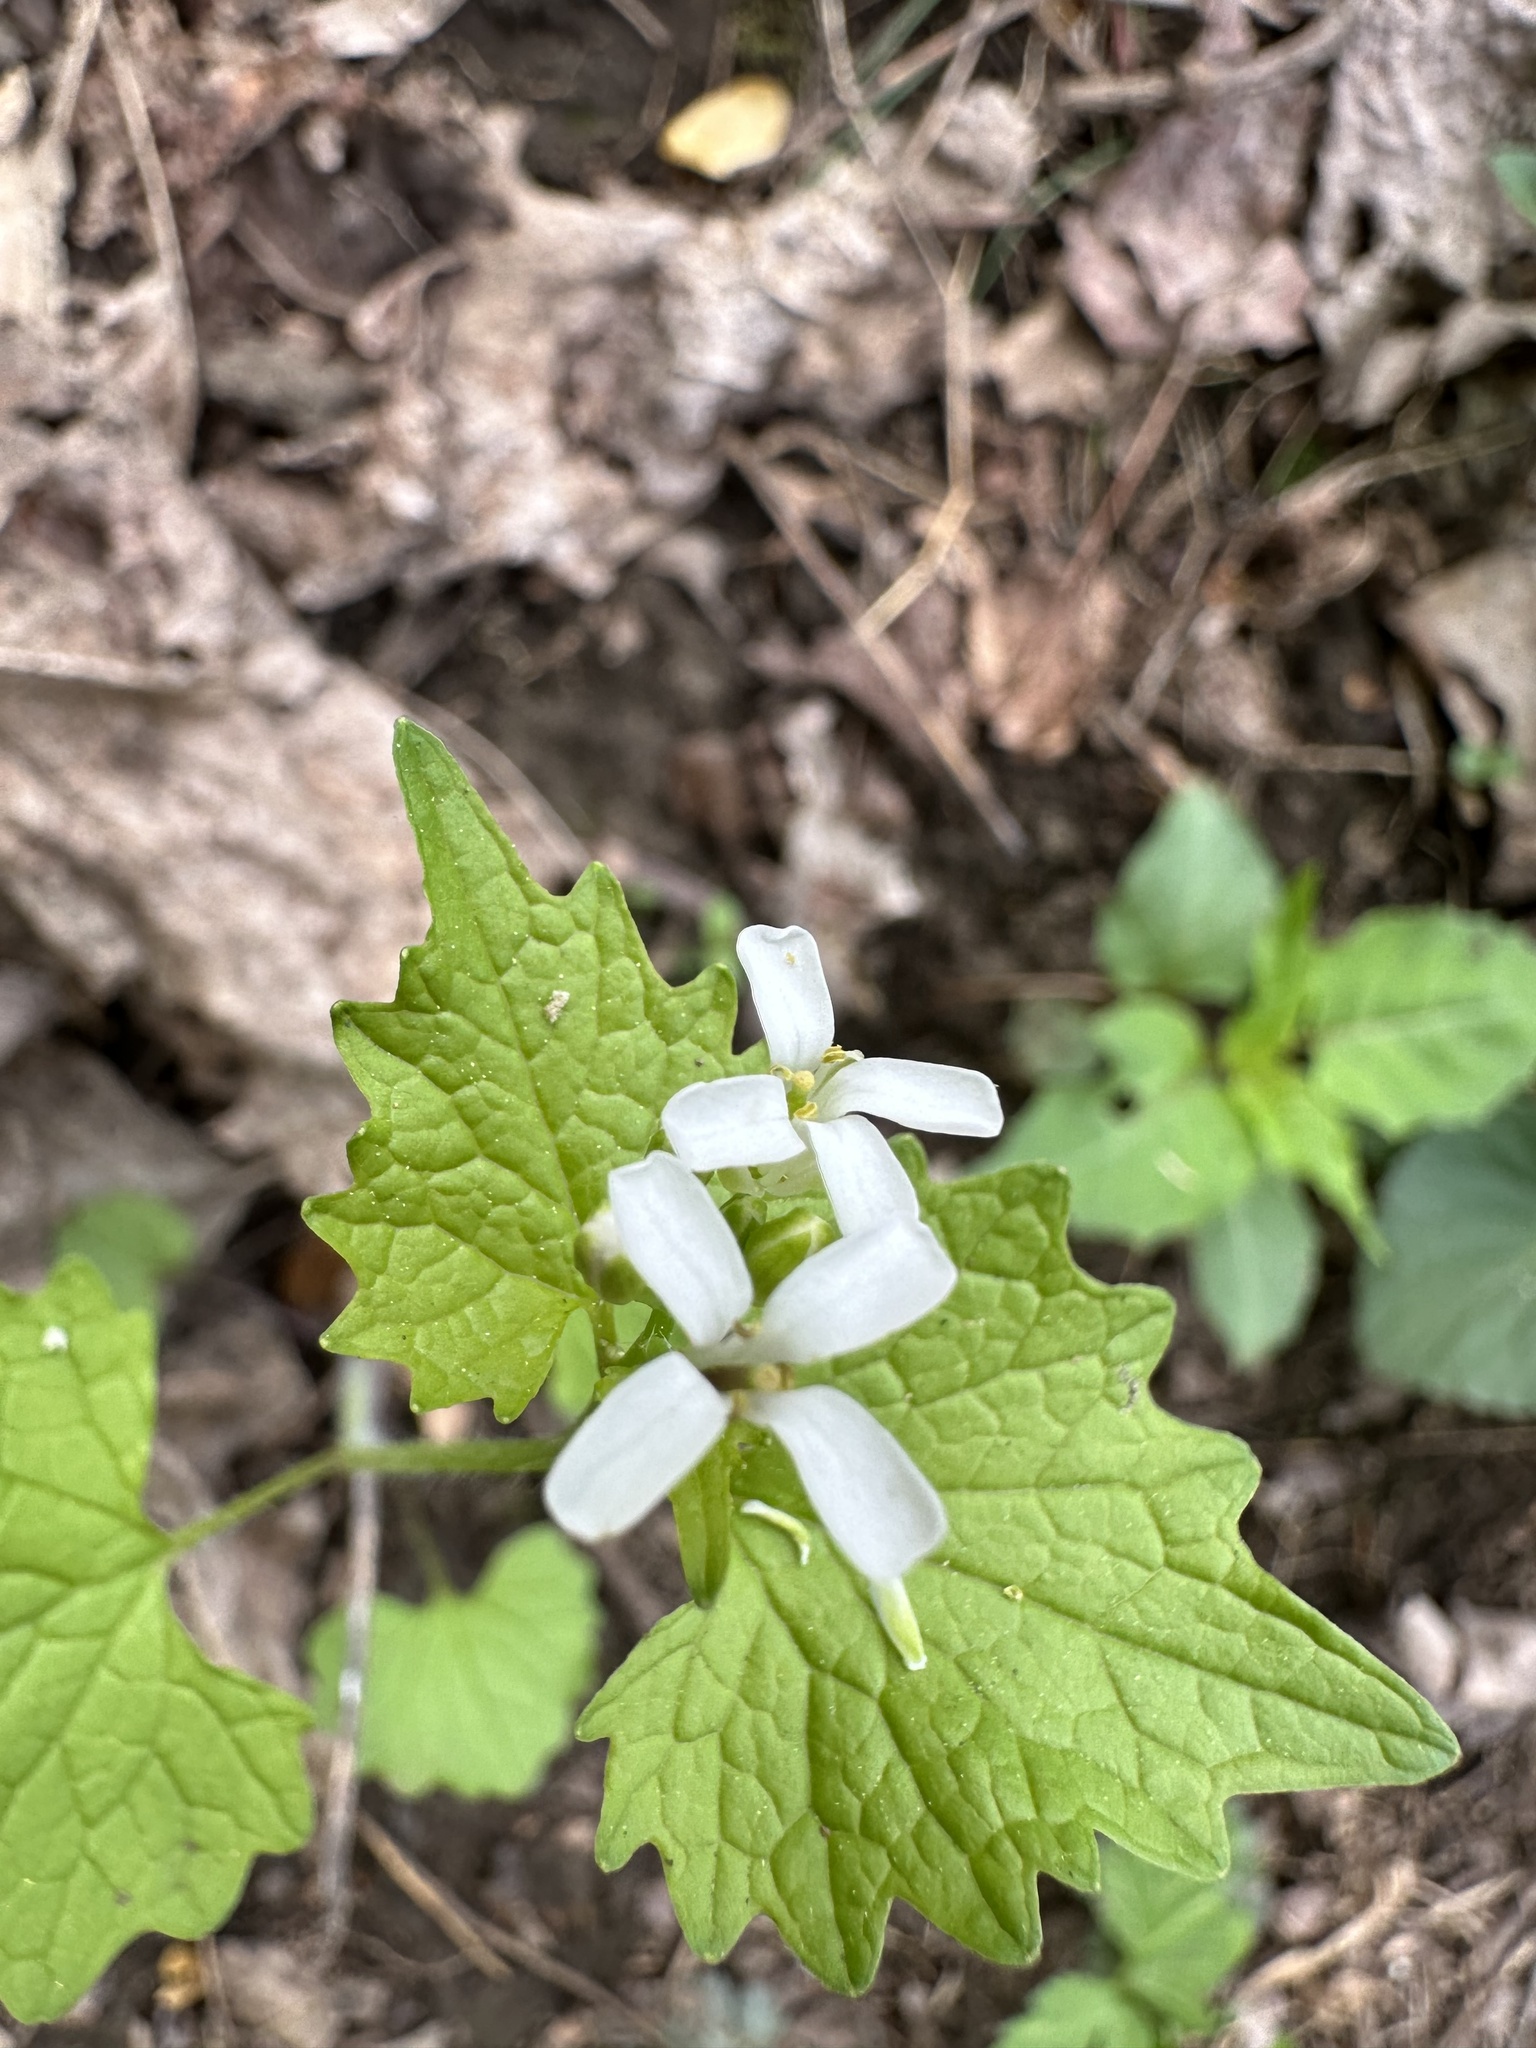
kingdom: Plantae
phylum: Tracheophyta
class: Magnoliopsida
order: Brassicales
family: Brassicaceae
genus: Alliaria
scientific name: Alliaria petiolata
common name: Garlic mustard
